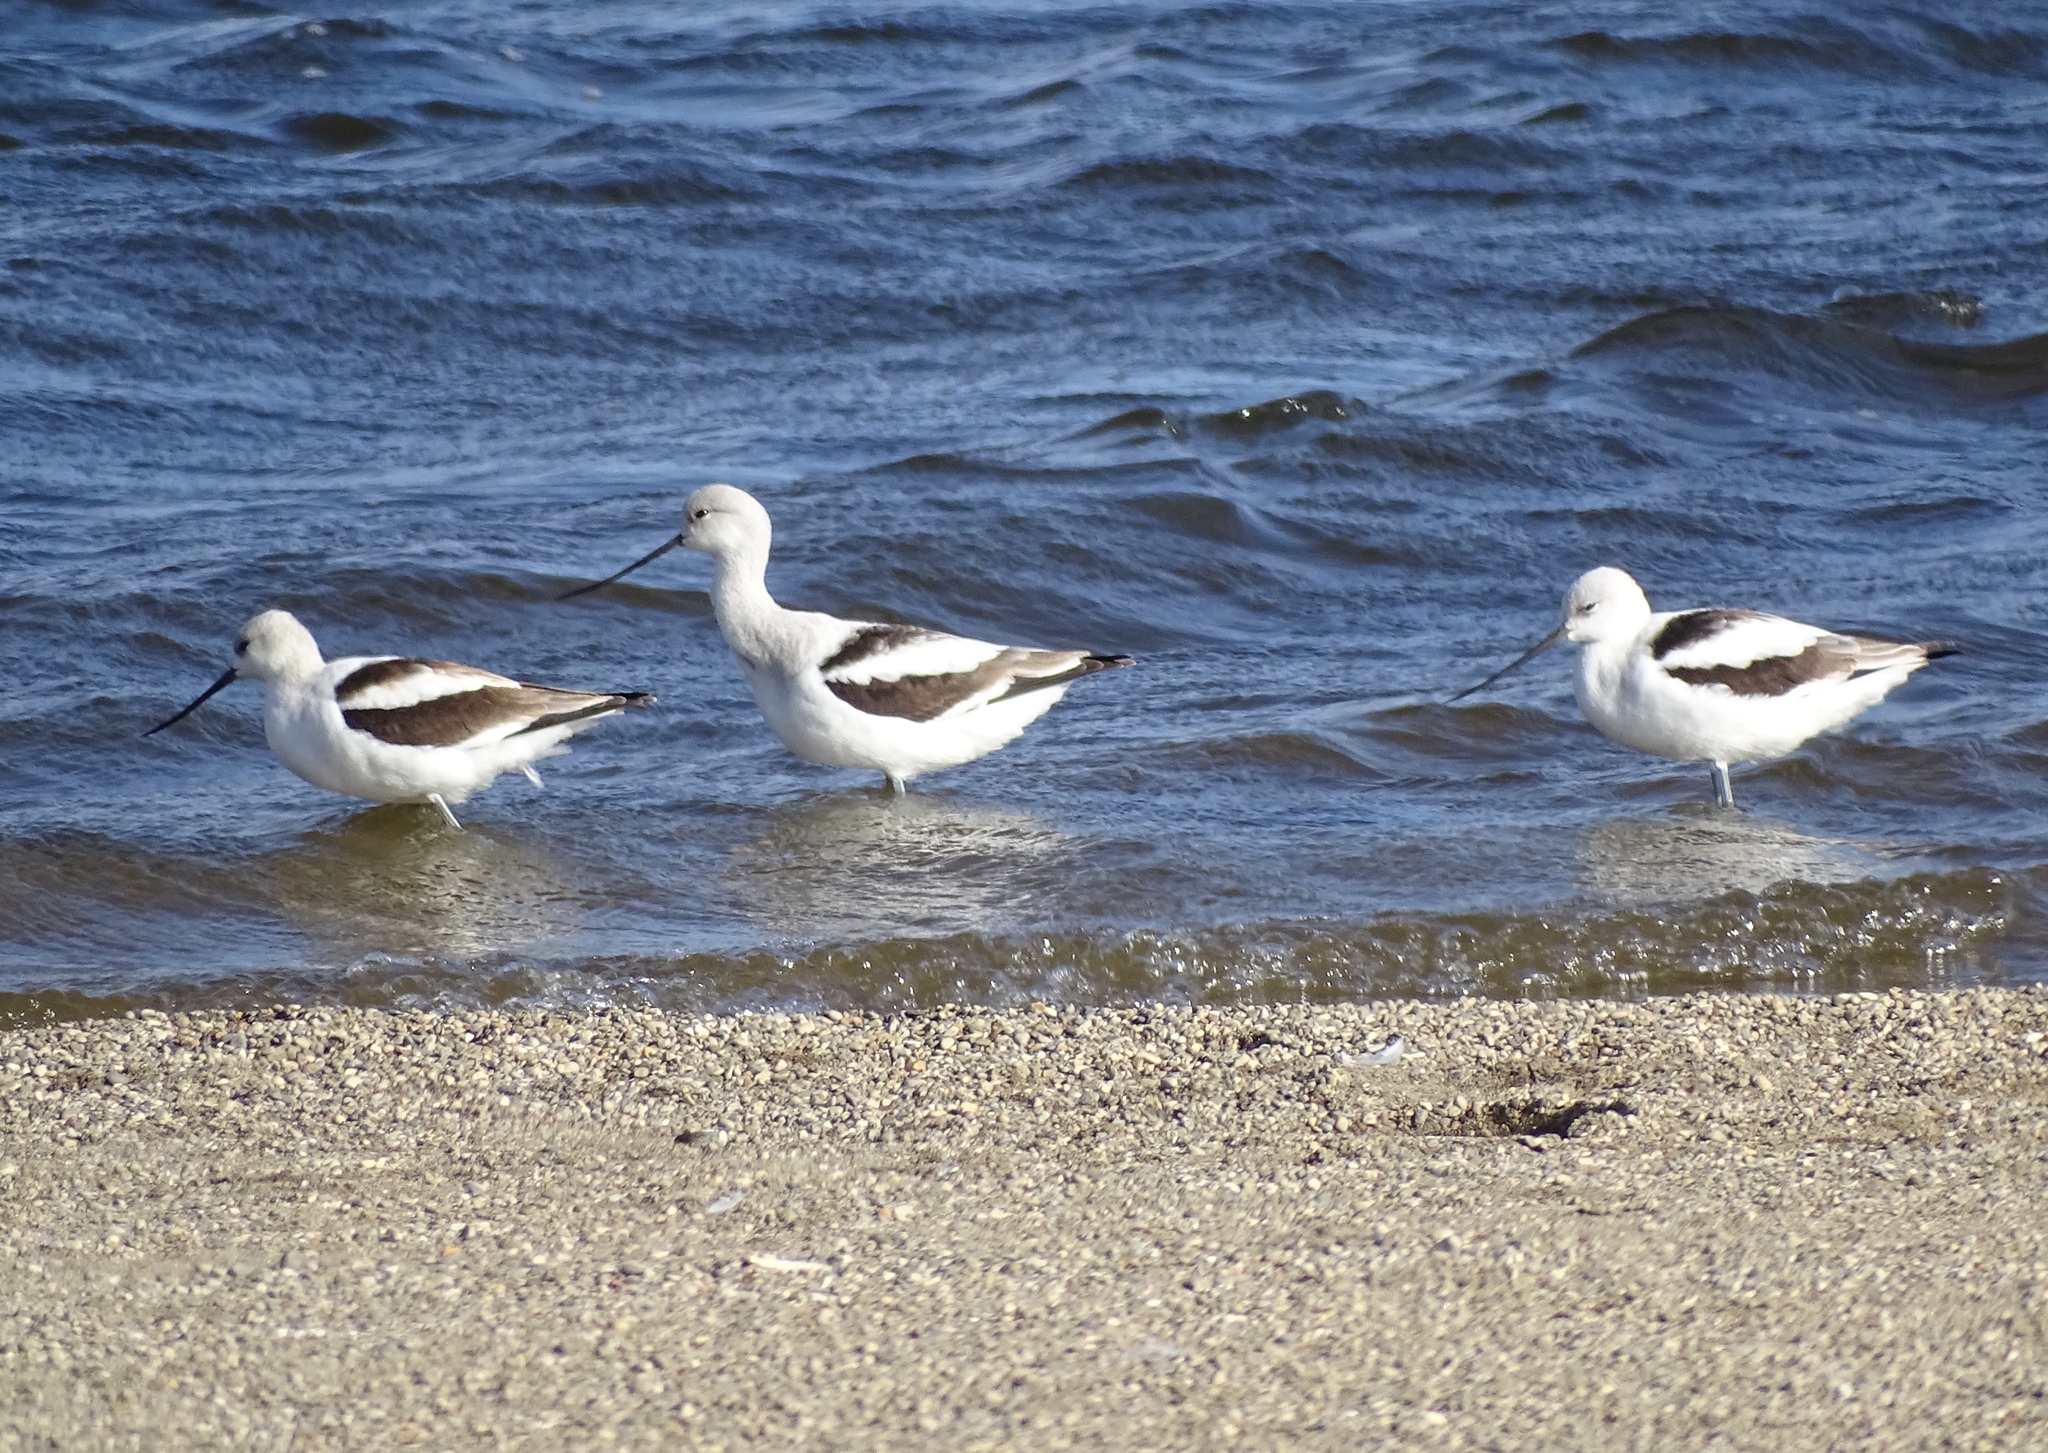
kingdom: Animalia
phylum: Chordata
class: Aves
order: Charadriiformes
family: Recurvirostridae
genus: Recurvirostra
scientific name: Recurvirostra americana
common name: American avocet
